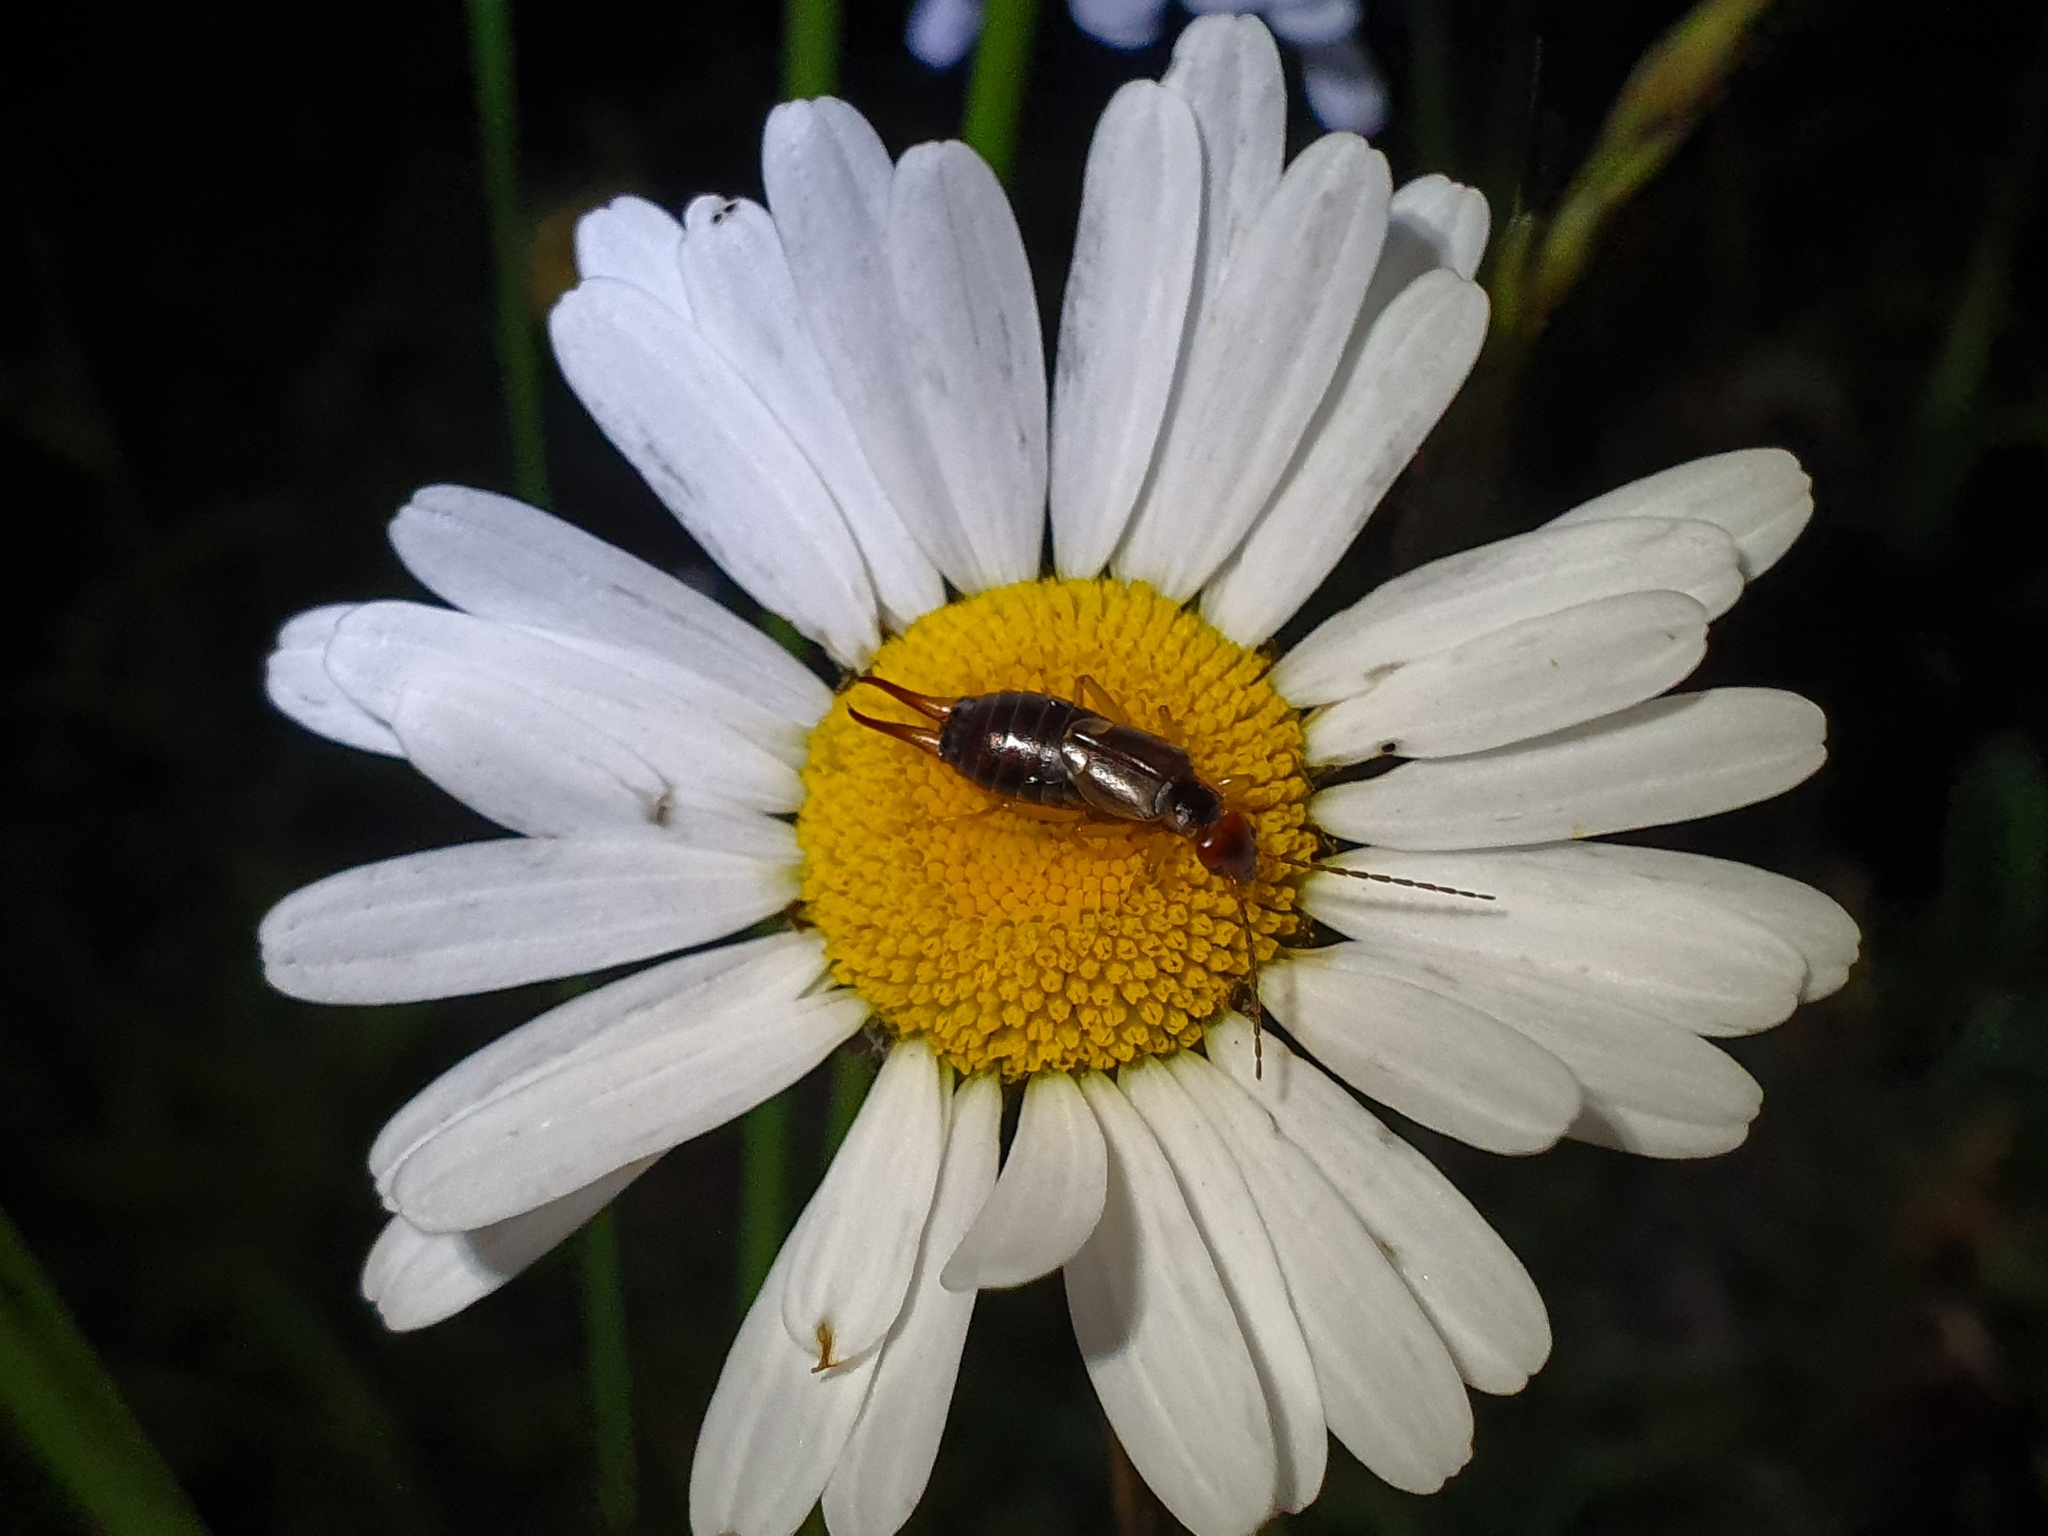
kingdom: Animalia
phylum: Arthropoda
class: Insecta
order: Dermaptera
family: Forficulidae
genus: Forficula
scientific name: Forficula
